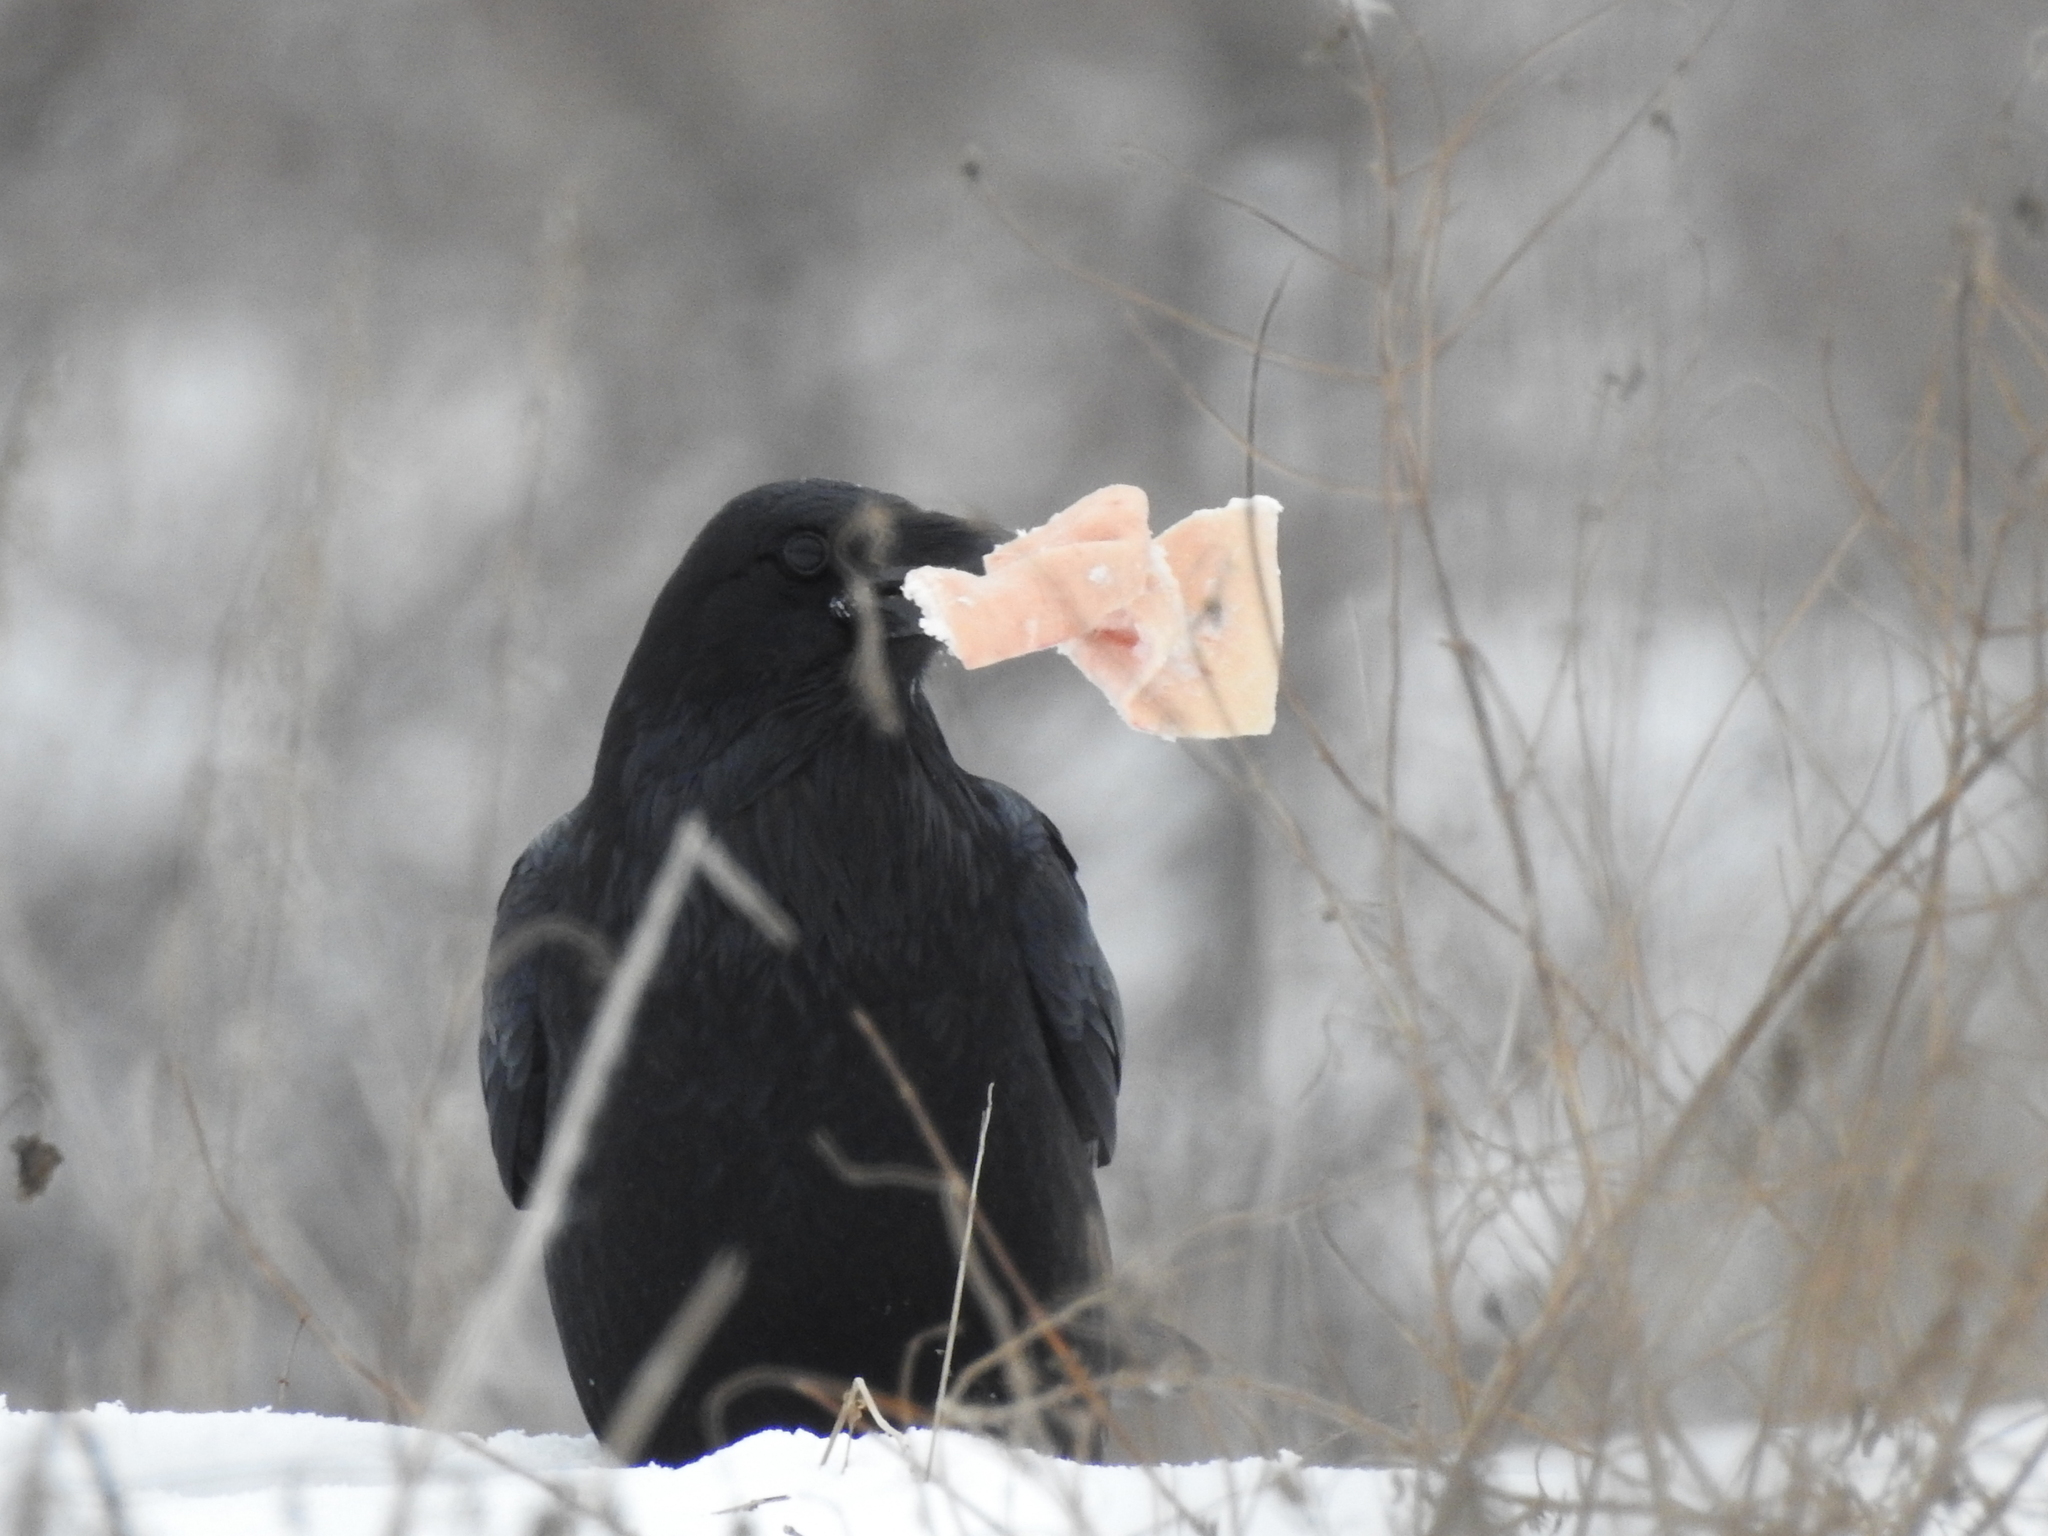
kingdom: Animalia
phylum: Chordata
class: Aves
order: Passeriformes
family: Corvidae
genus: Corvus
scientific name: Corvus corax
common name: Common raven
